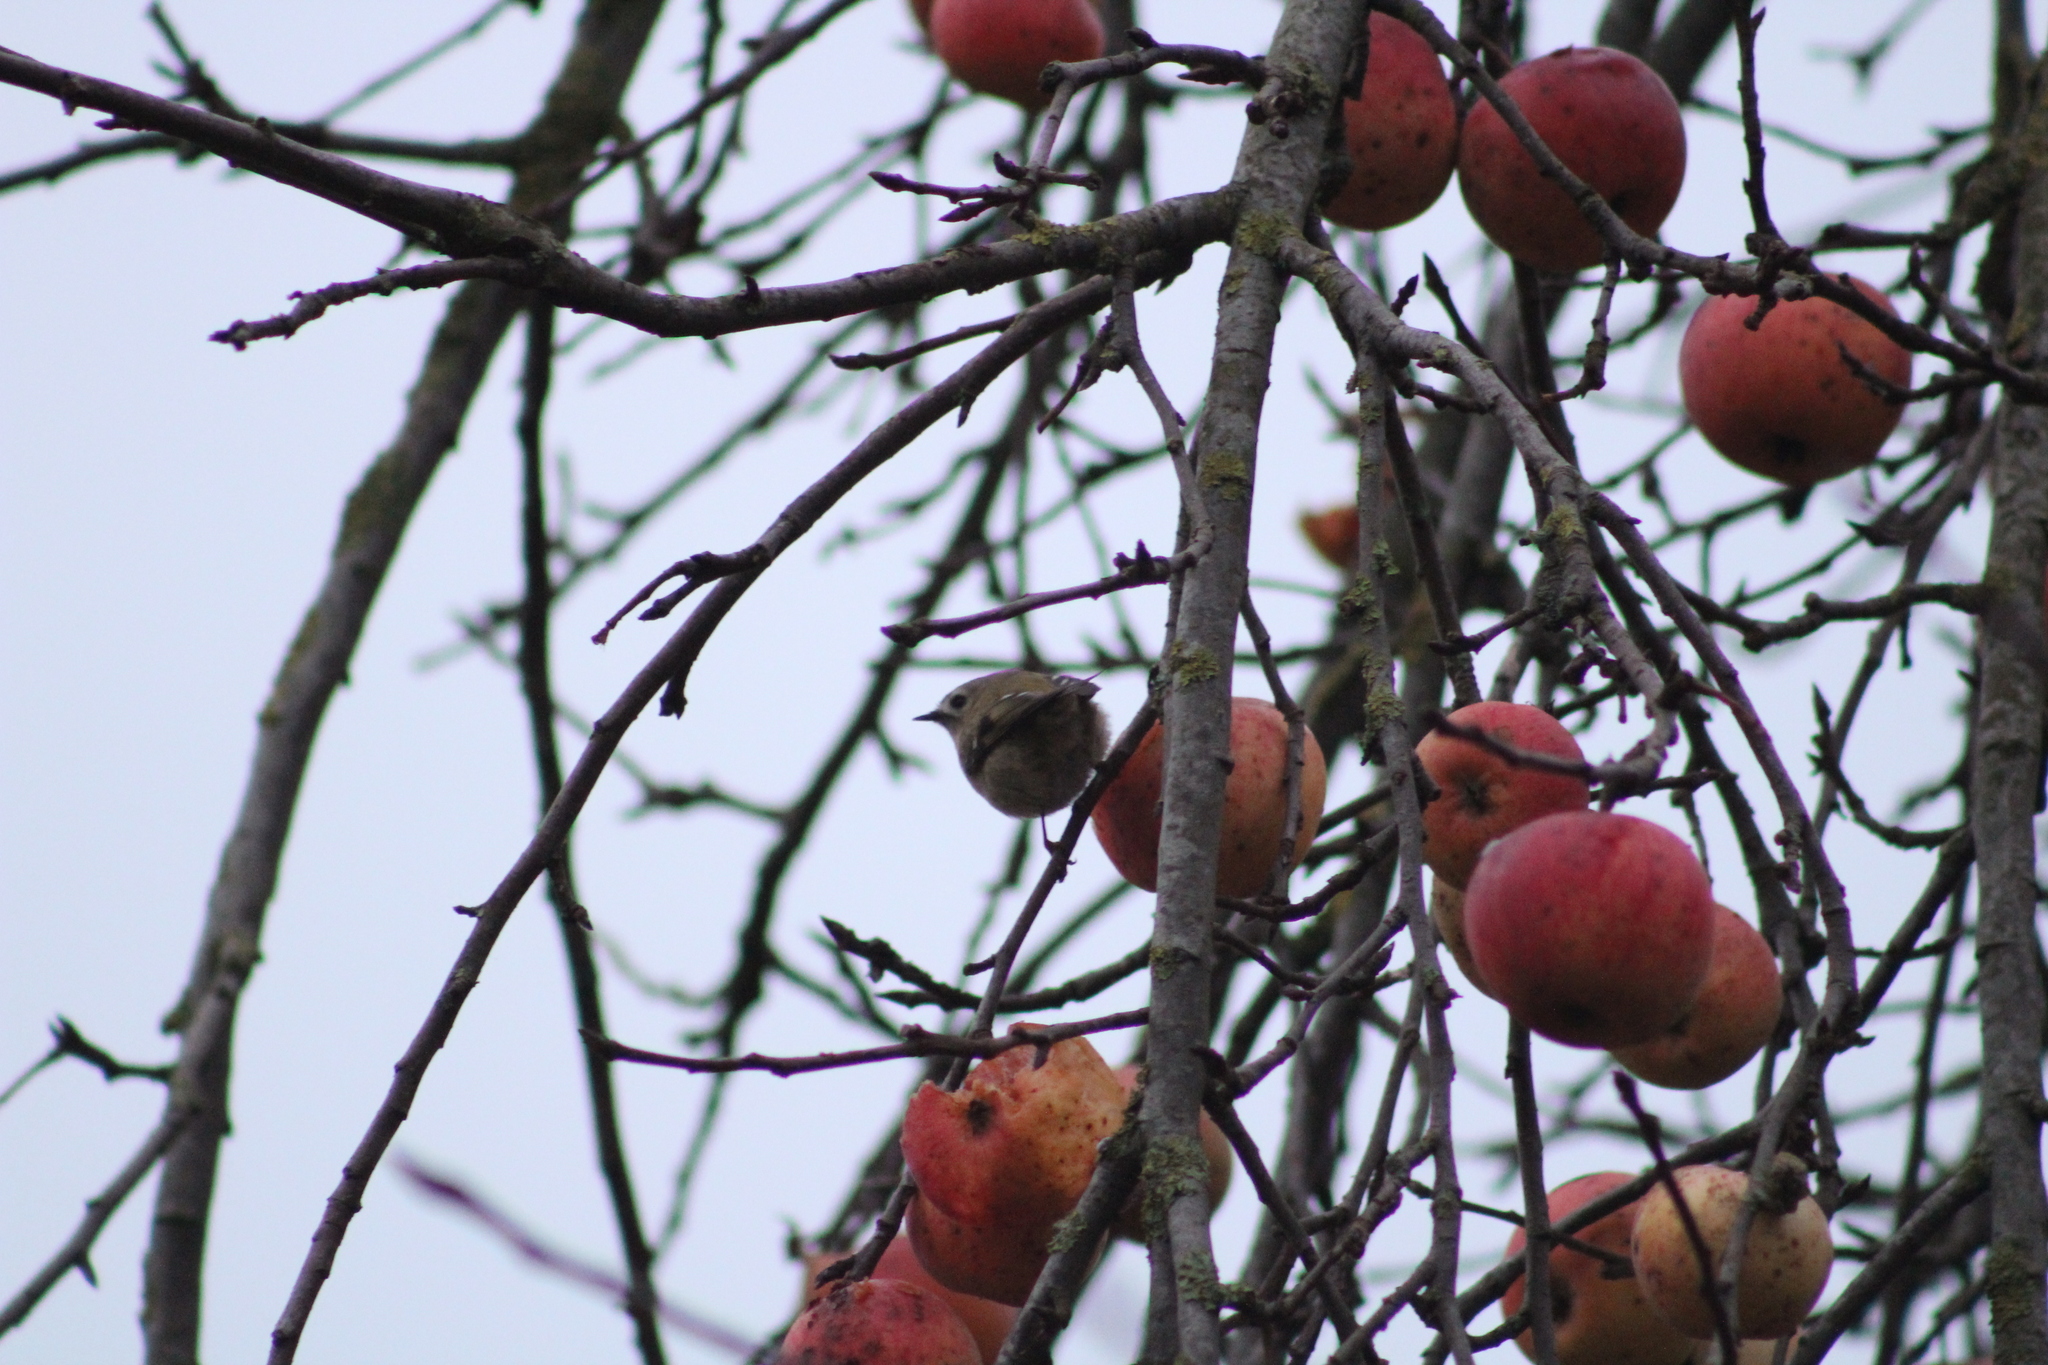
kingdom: Animalia
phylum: Chordata
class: Aves
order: Passeriformes
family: Regulidae
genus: Regulus
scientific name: Regulus regulus
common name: Goldcrest
